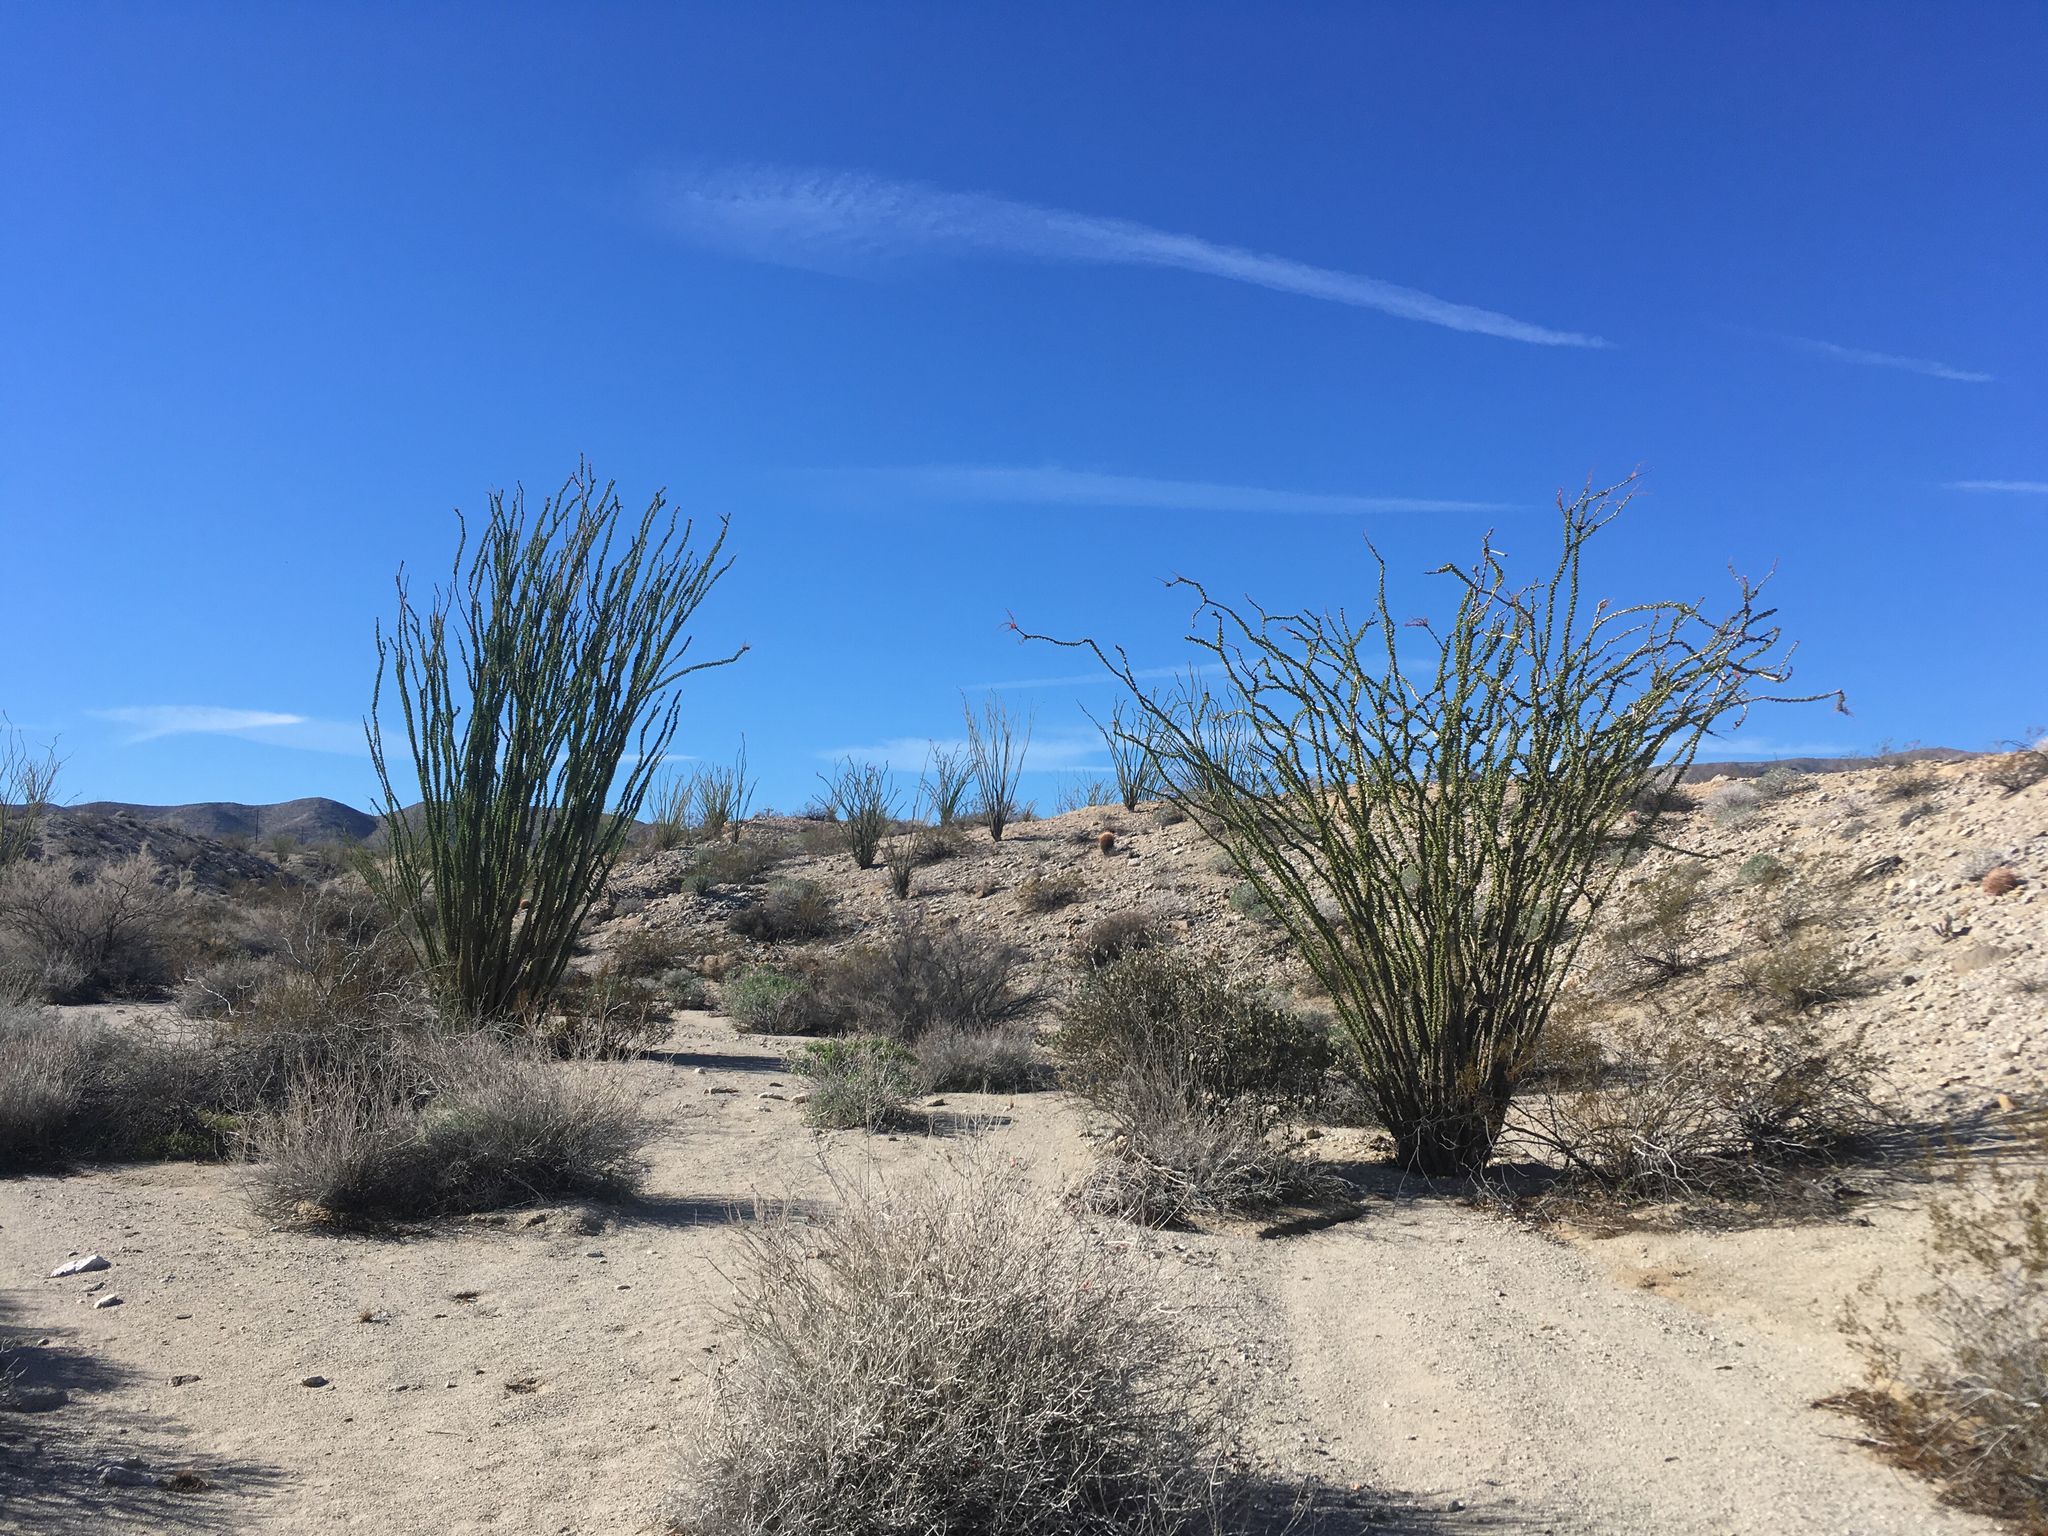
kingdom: Plantae
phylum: Tracheophyta
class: Magnoliopsida
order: Ericales
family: Fouquieriaceae
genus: Fouquieria
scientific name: Fouquieria splendens
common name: Vine-cactus
